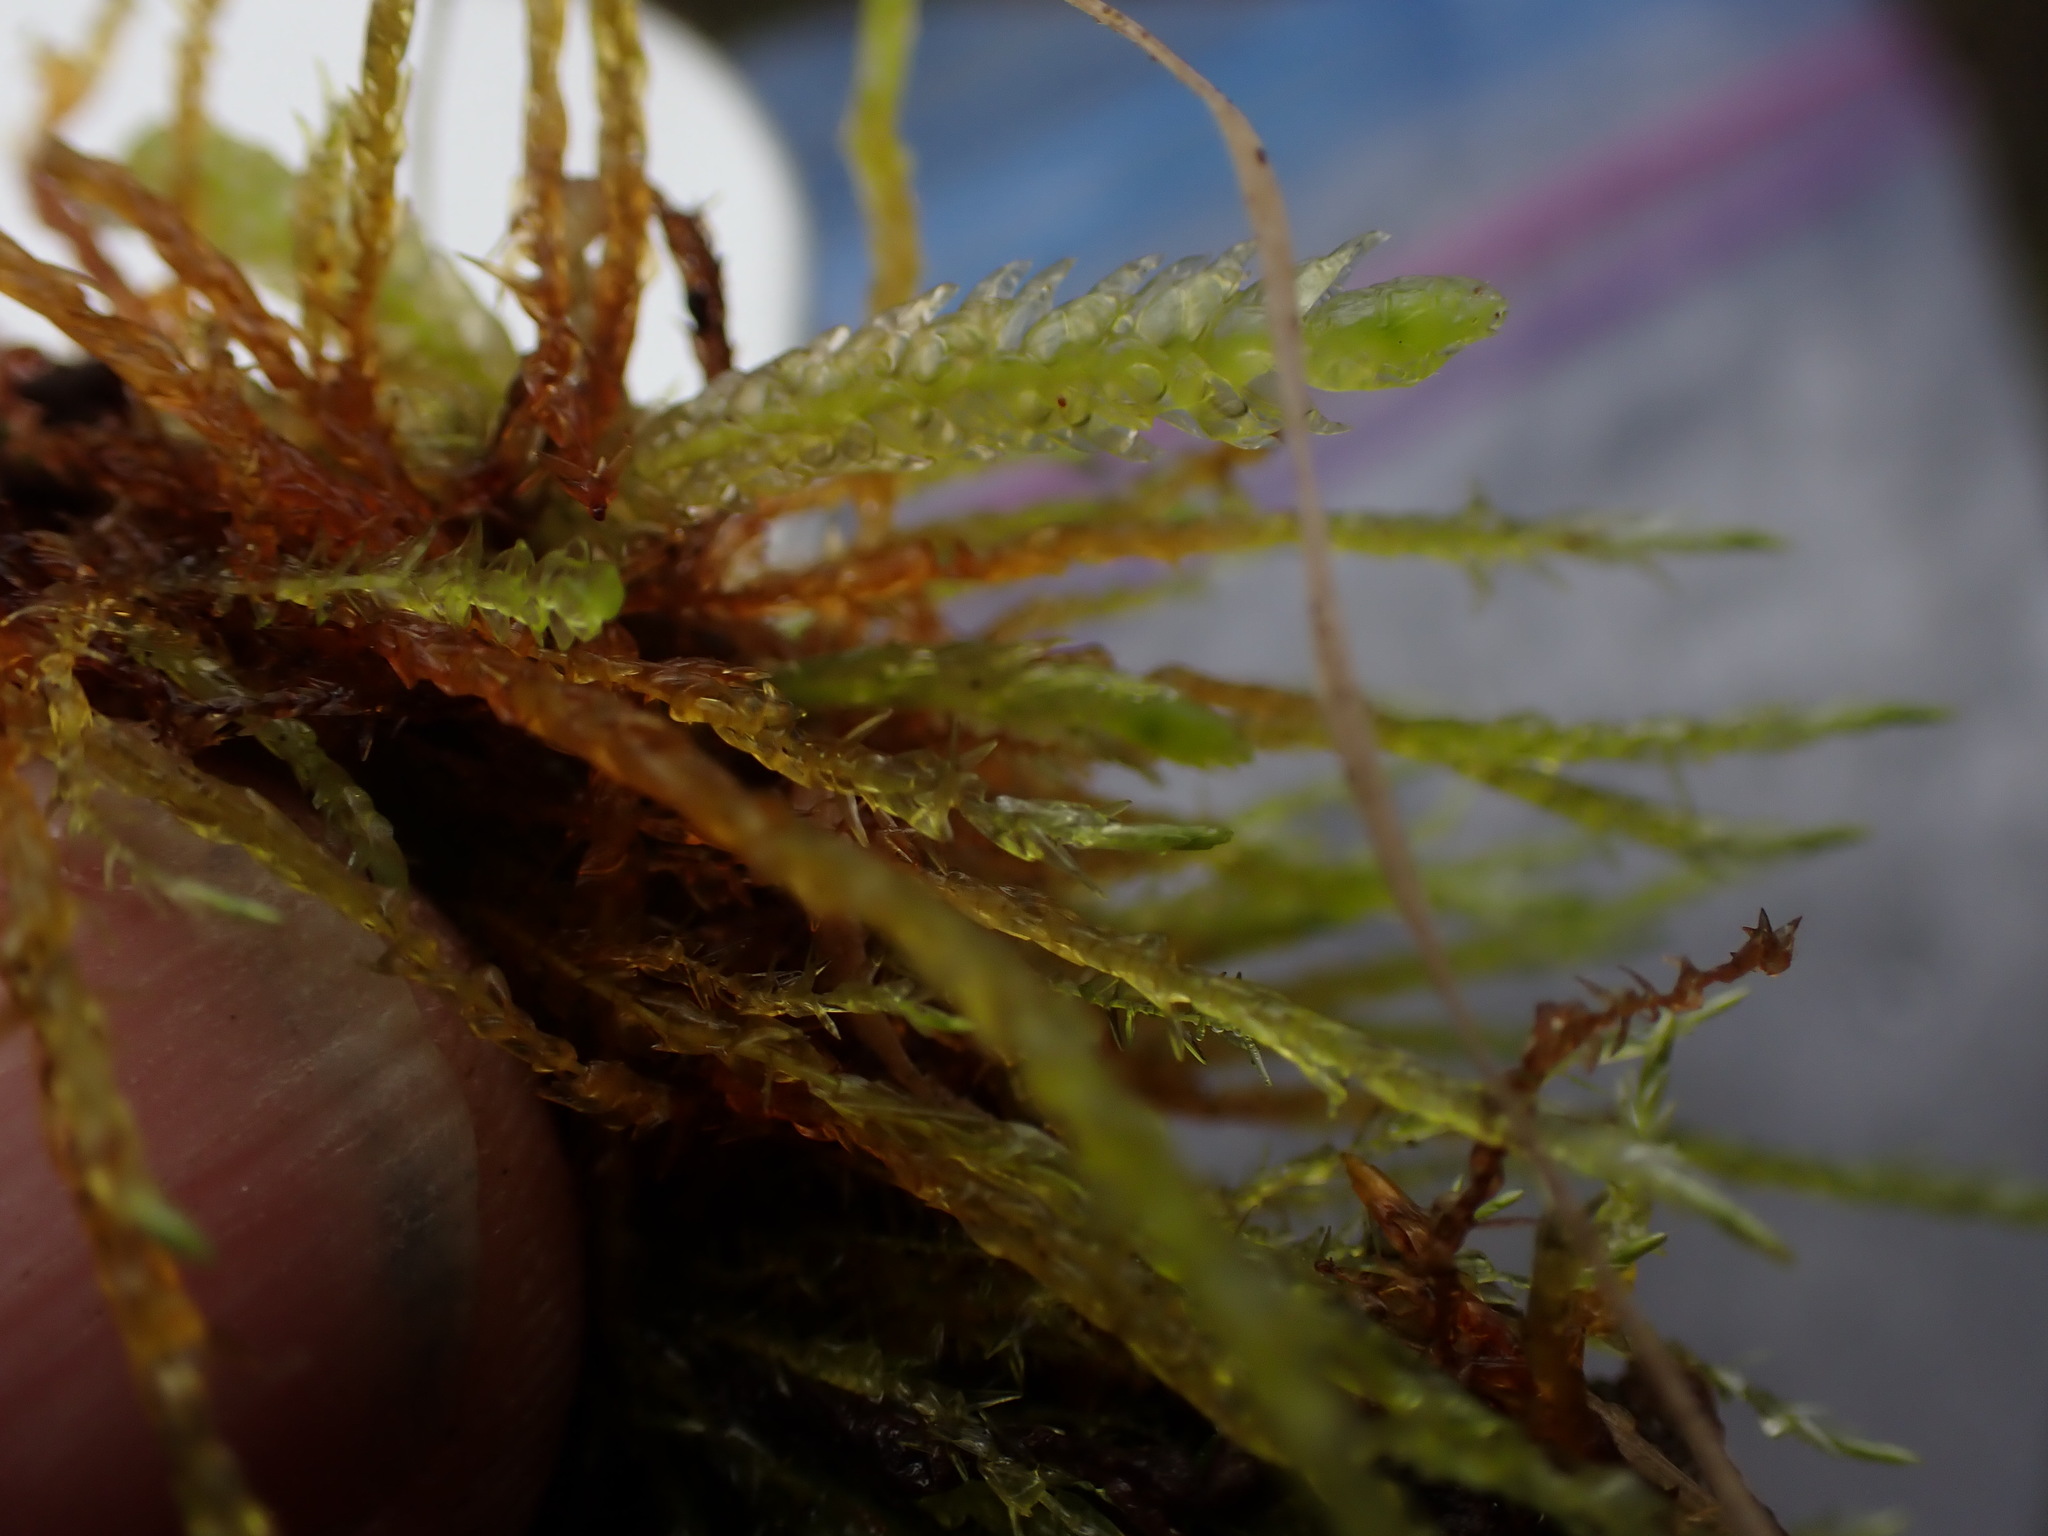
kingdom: Plantae
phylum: Bryophyta
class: Bryopsida
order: Hypnales
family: Calliergonaceae
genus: Straminergon
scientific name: Straminergon stramineum
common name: Straw moss
